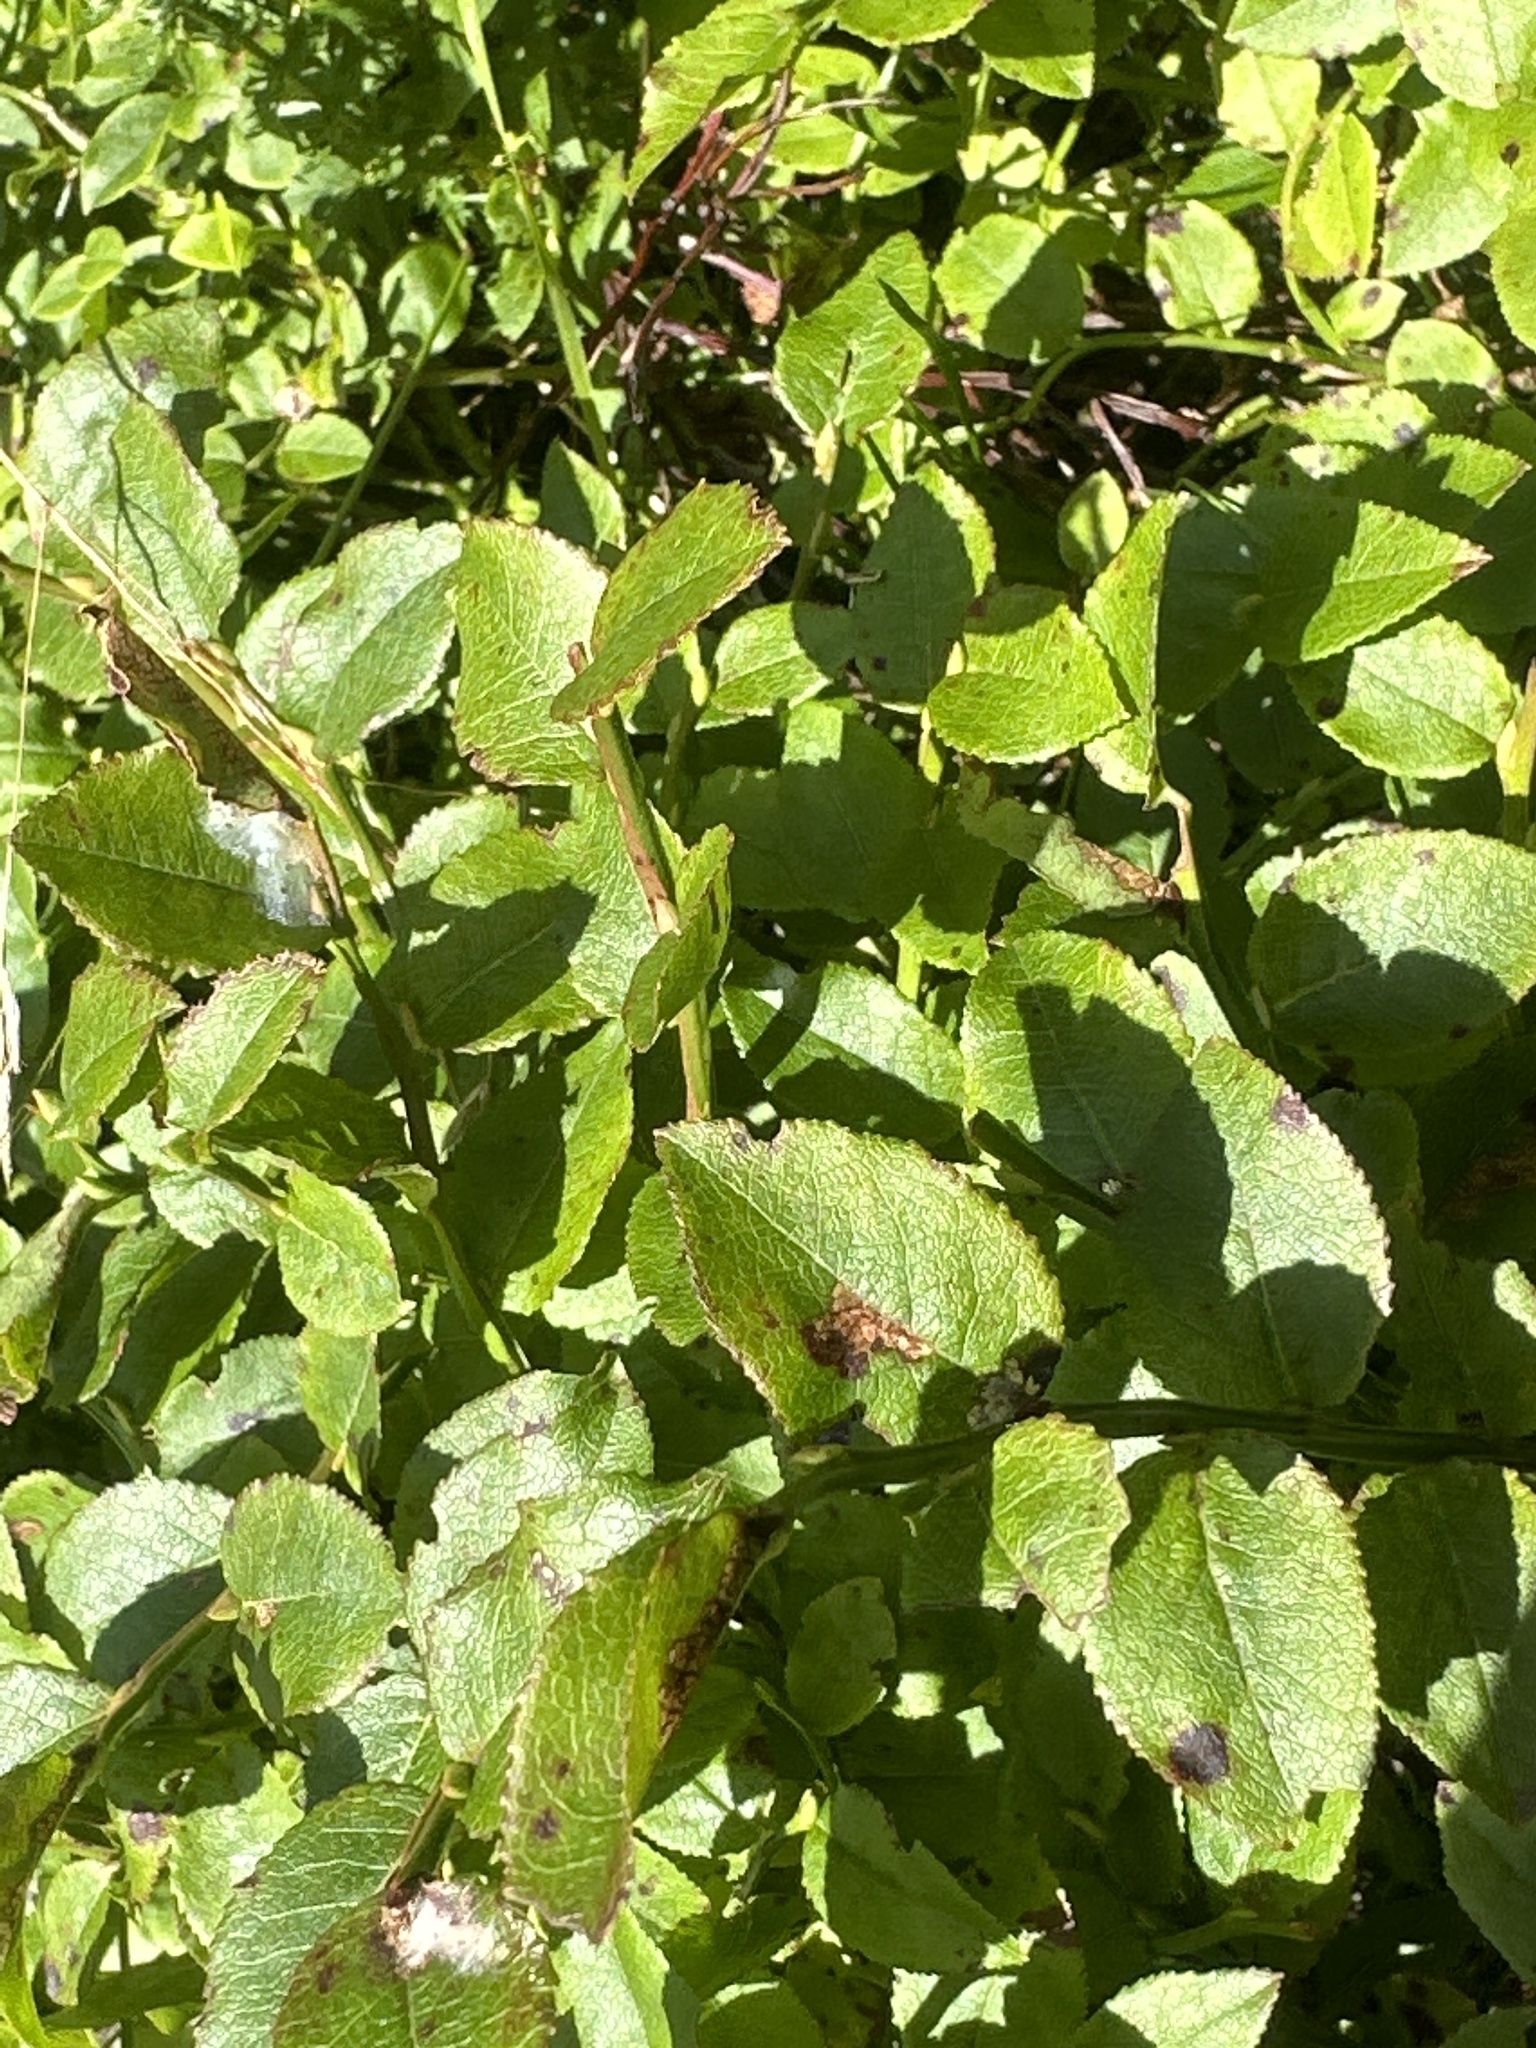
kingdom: Plantae
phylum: Tracheophyta
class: Magnoliopsida
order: Ericales
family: Ericaceae
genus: Vaccinium
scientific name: Vaccinium myrtillus
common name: Bilberry
